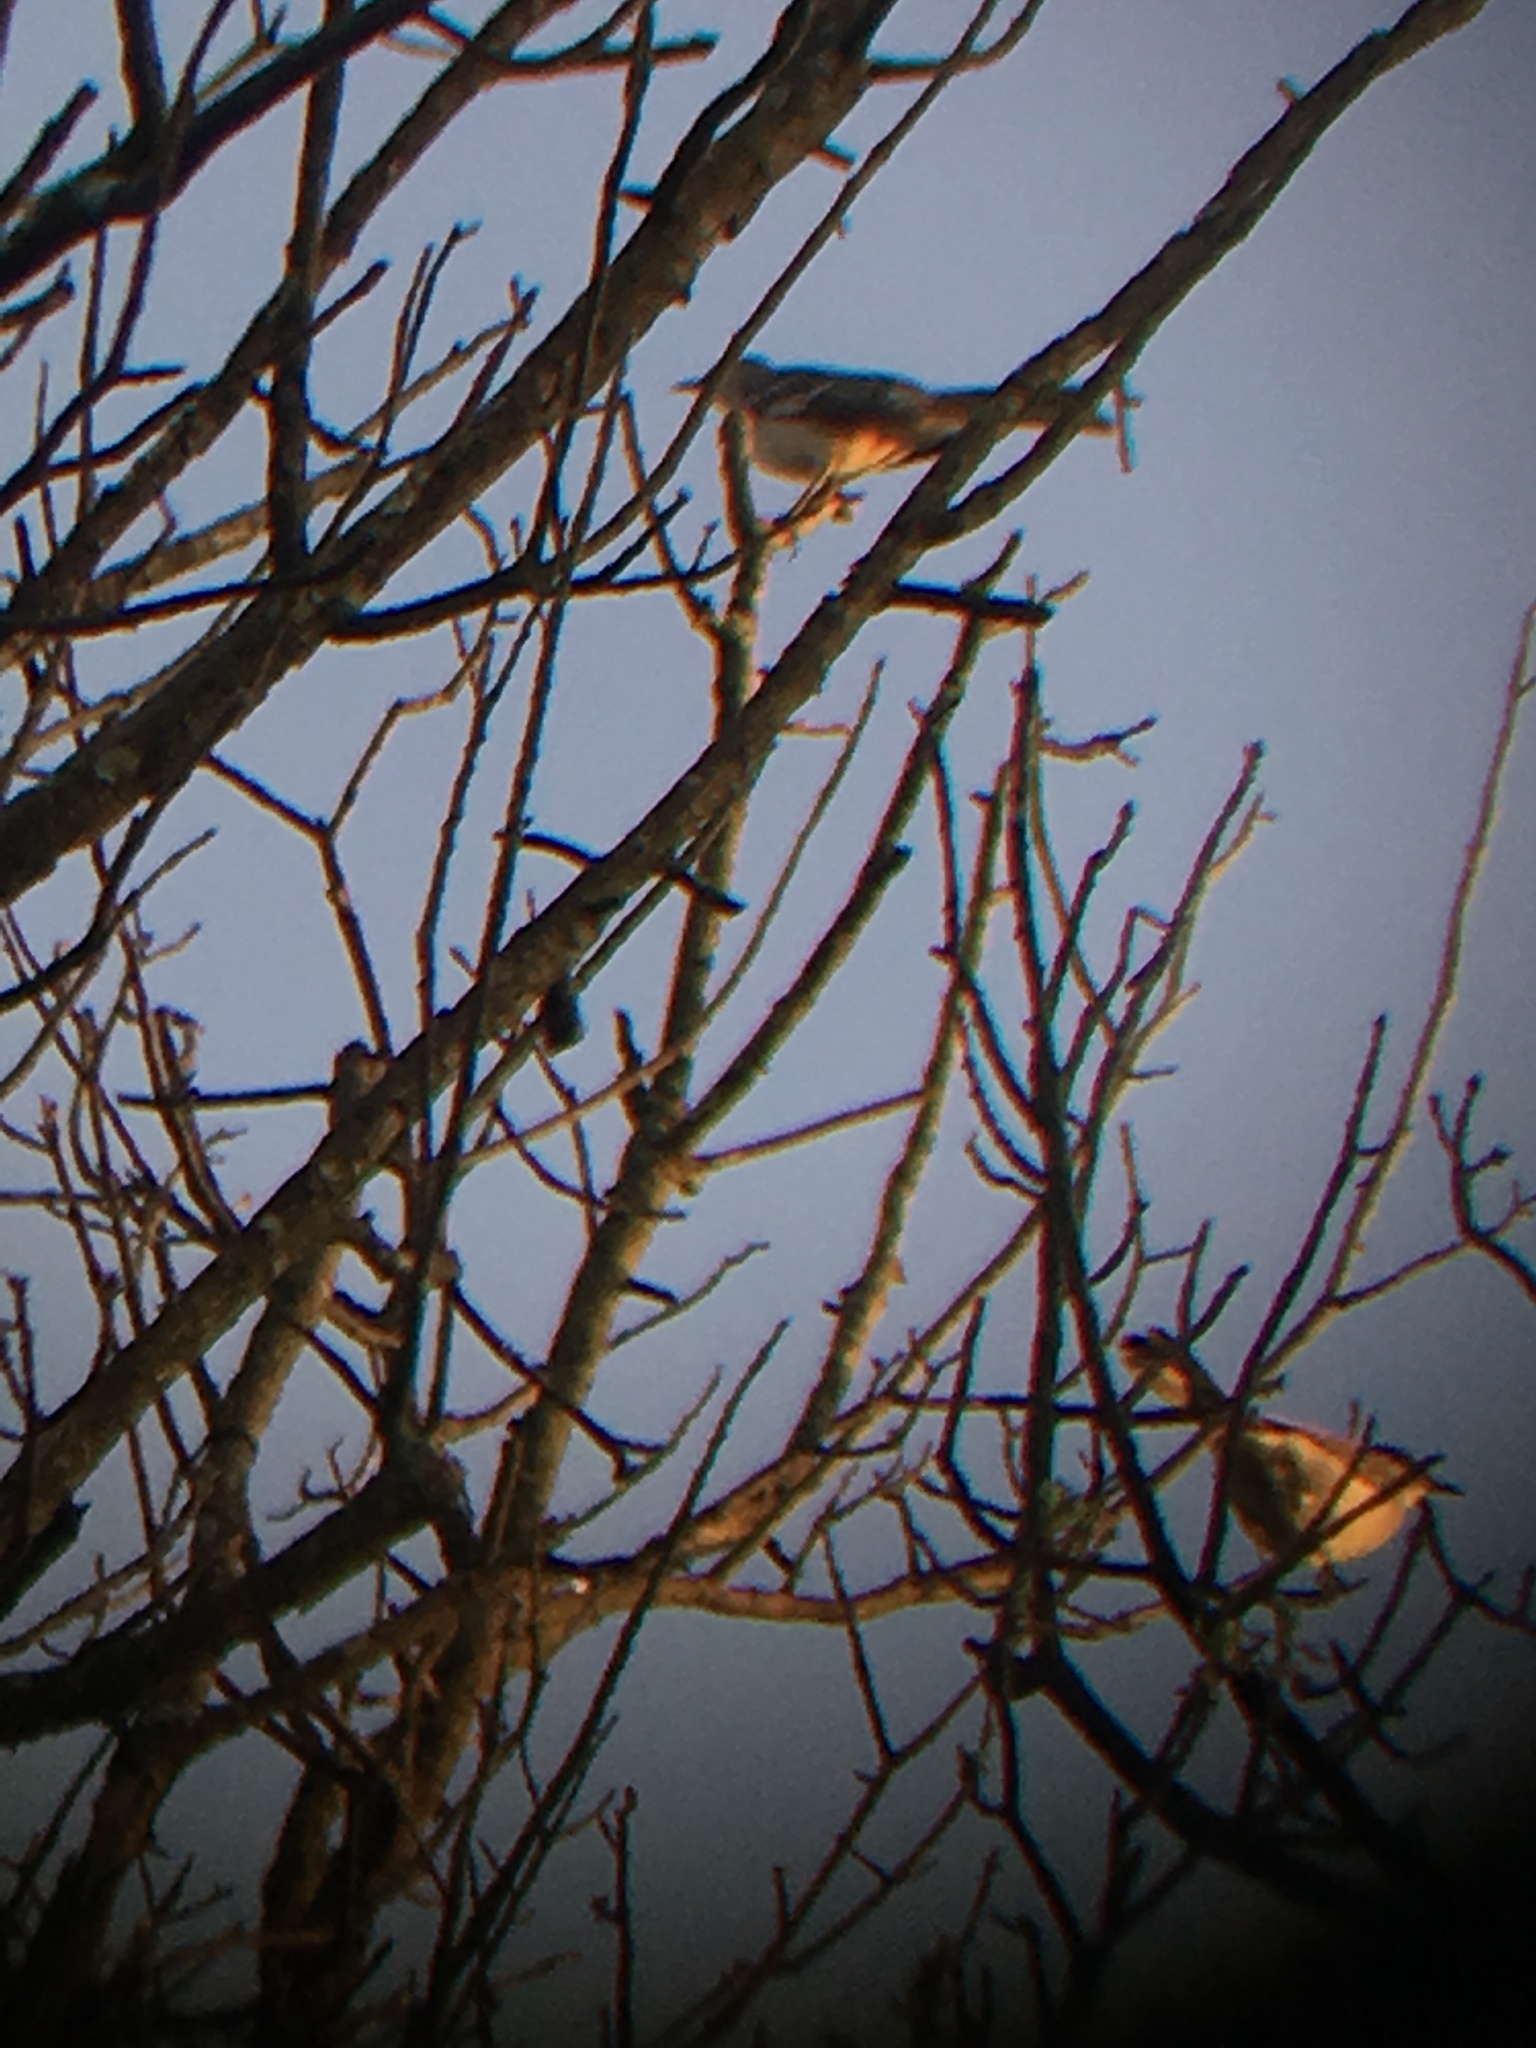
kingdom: Animalia
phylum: Chordata
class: Aves
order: Passeriformes
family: Mimidae
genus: Mimus
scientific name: Mimus polyglottos
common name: Northern mockingbird
